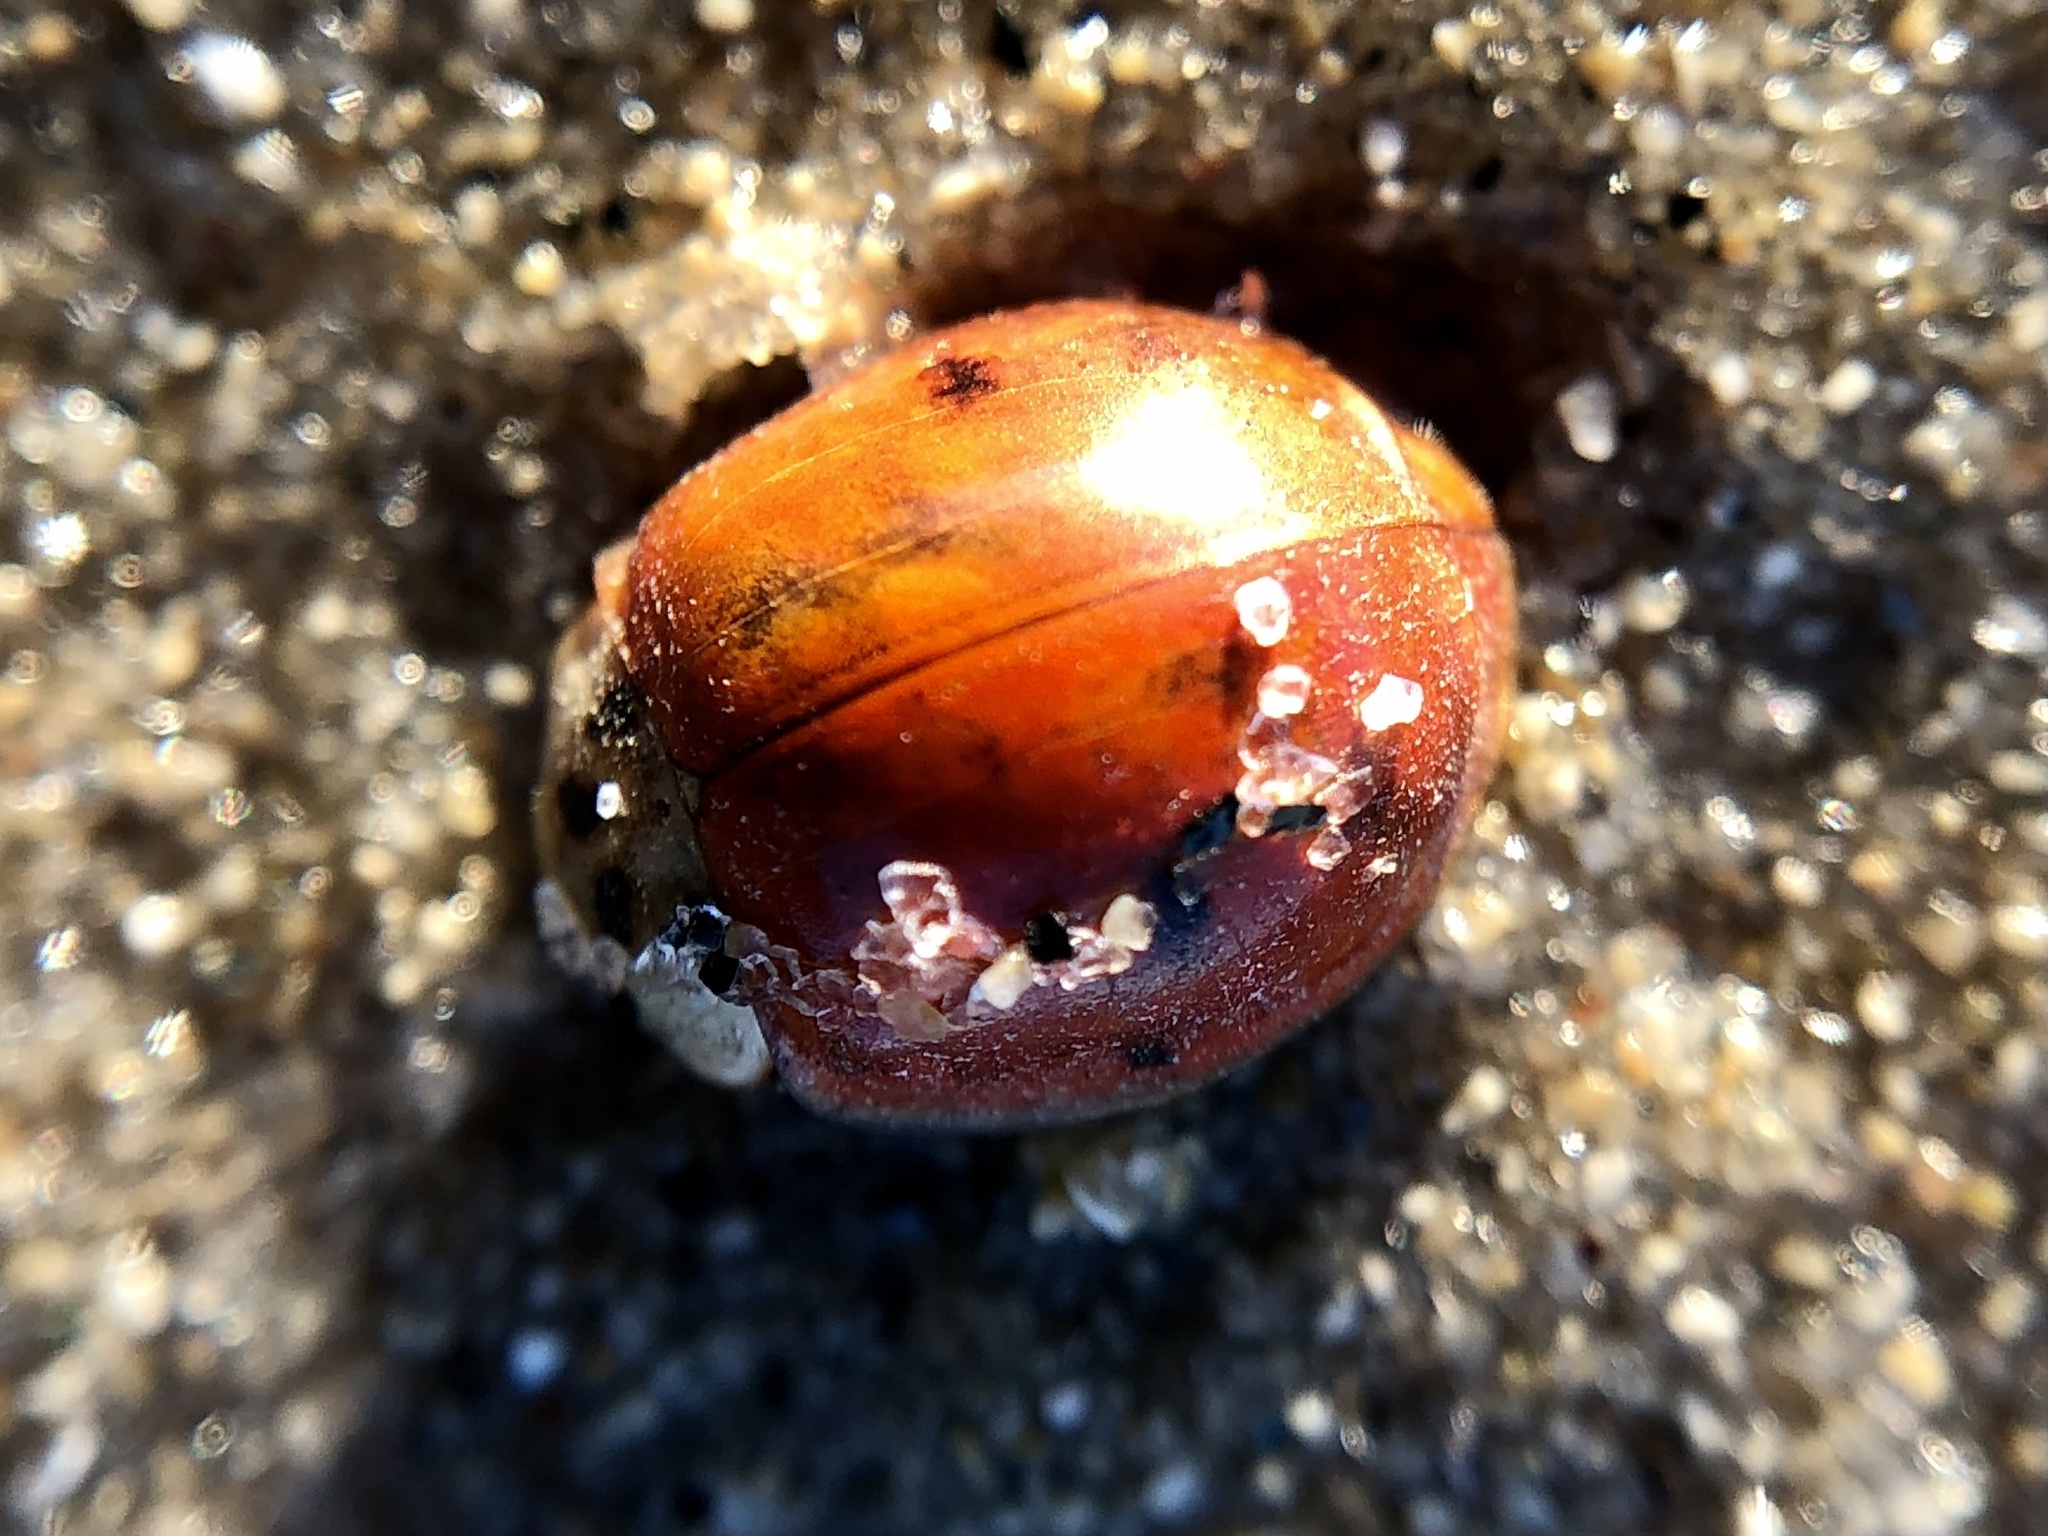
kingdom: Animalia
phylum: Arthropoda
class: Insecta
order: Coleoptera
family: Coccinellidae
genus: Harmonia
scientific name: Harmonia axyridis
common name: Harlequin ladybird
